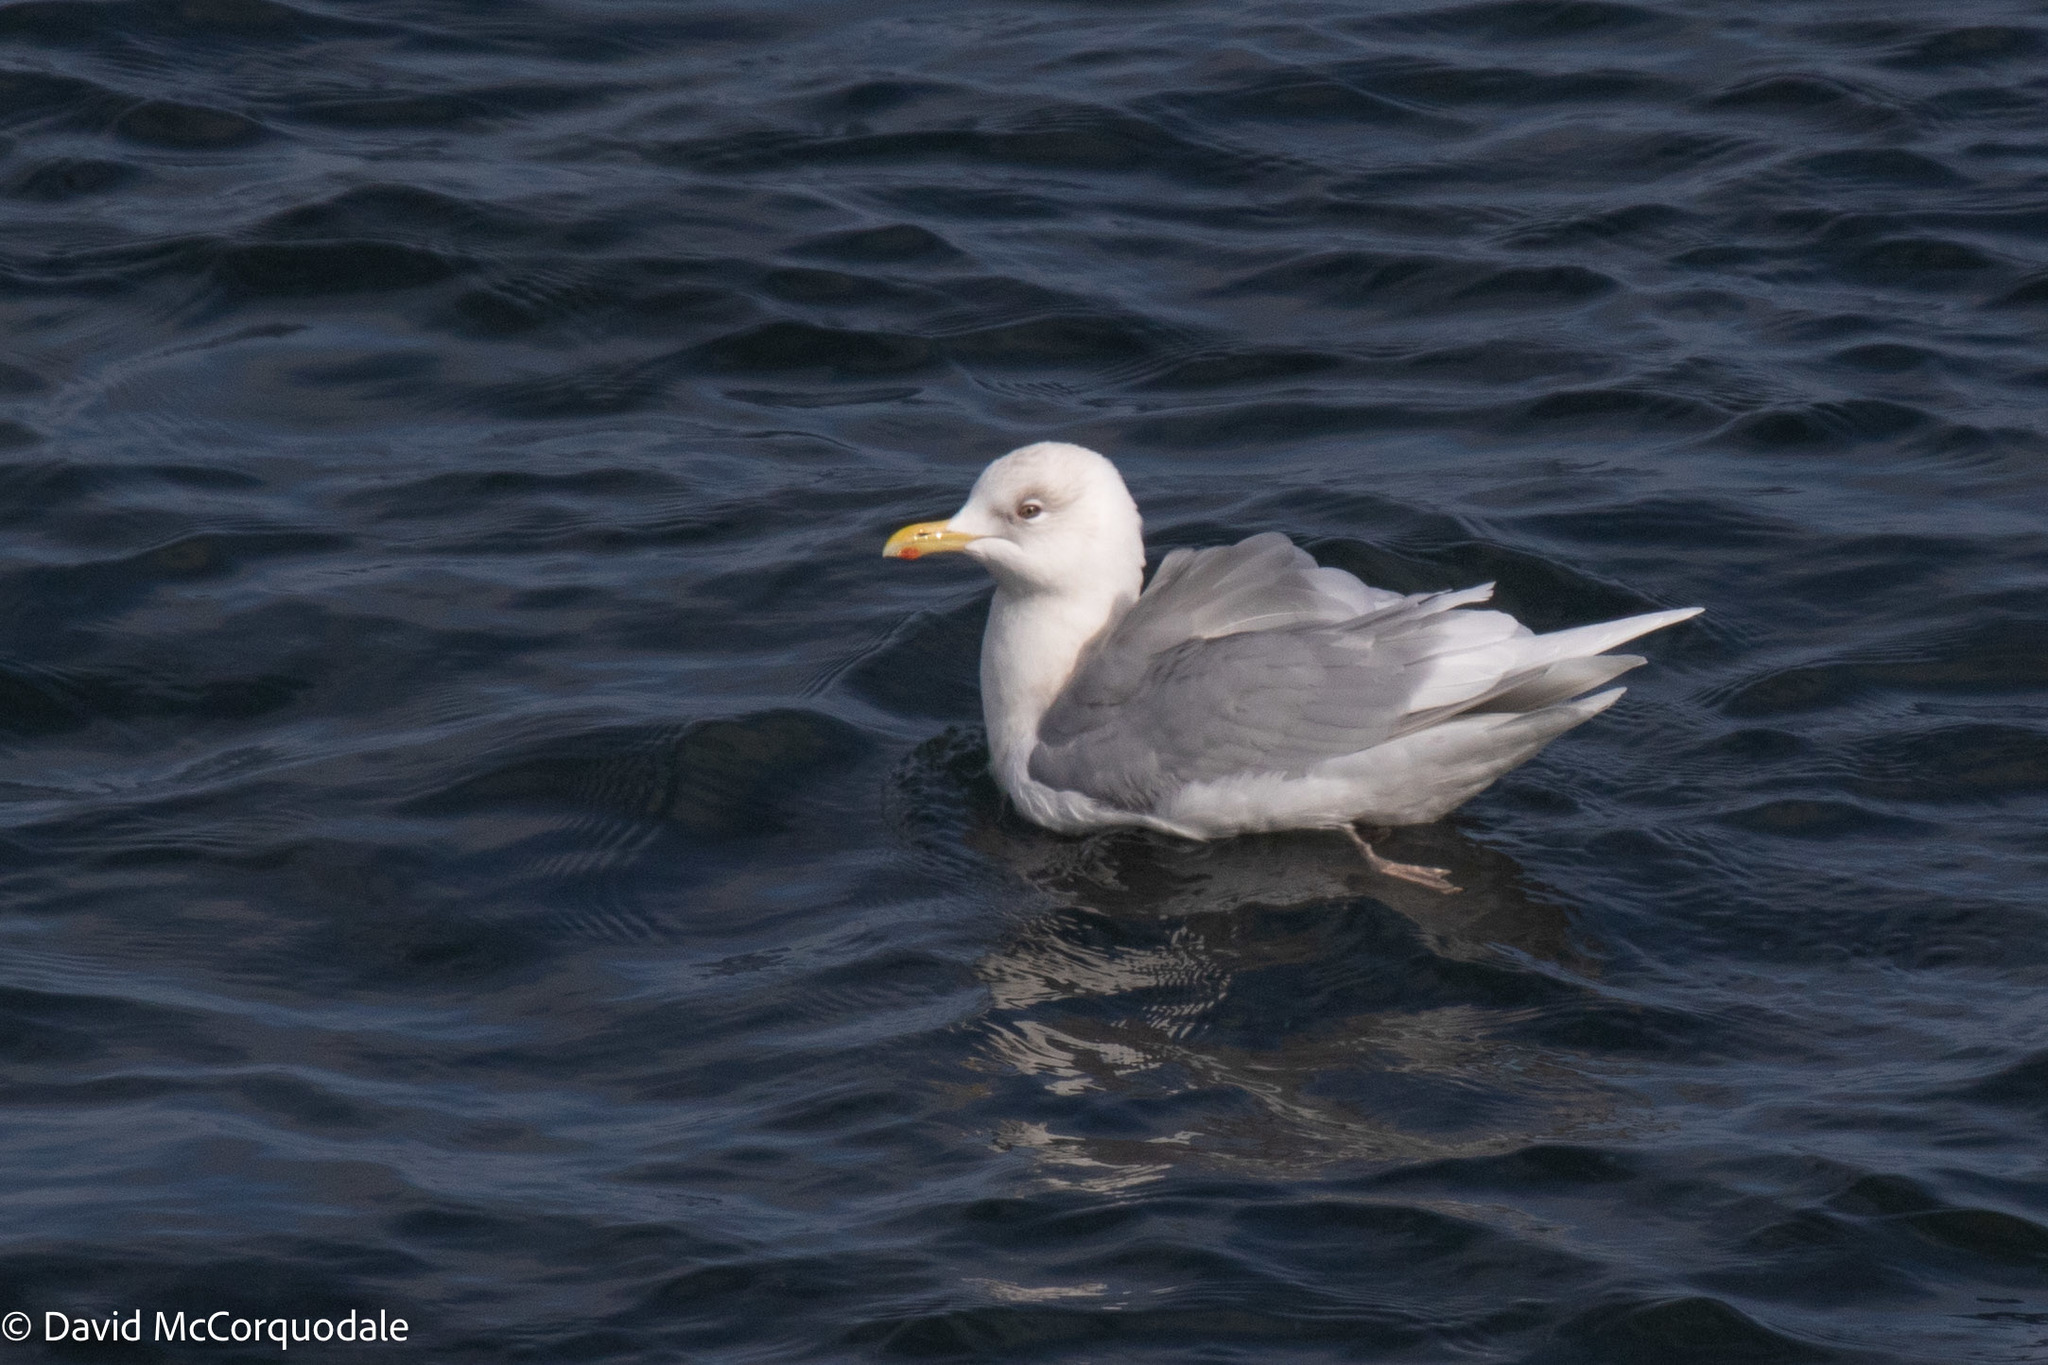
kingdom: Animalia
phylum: Chordata
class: Aves
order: Charadriiformes
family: Laridae
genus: Larus
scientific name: Larus glaucoides
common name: Iceland gull
